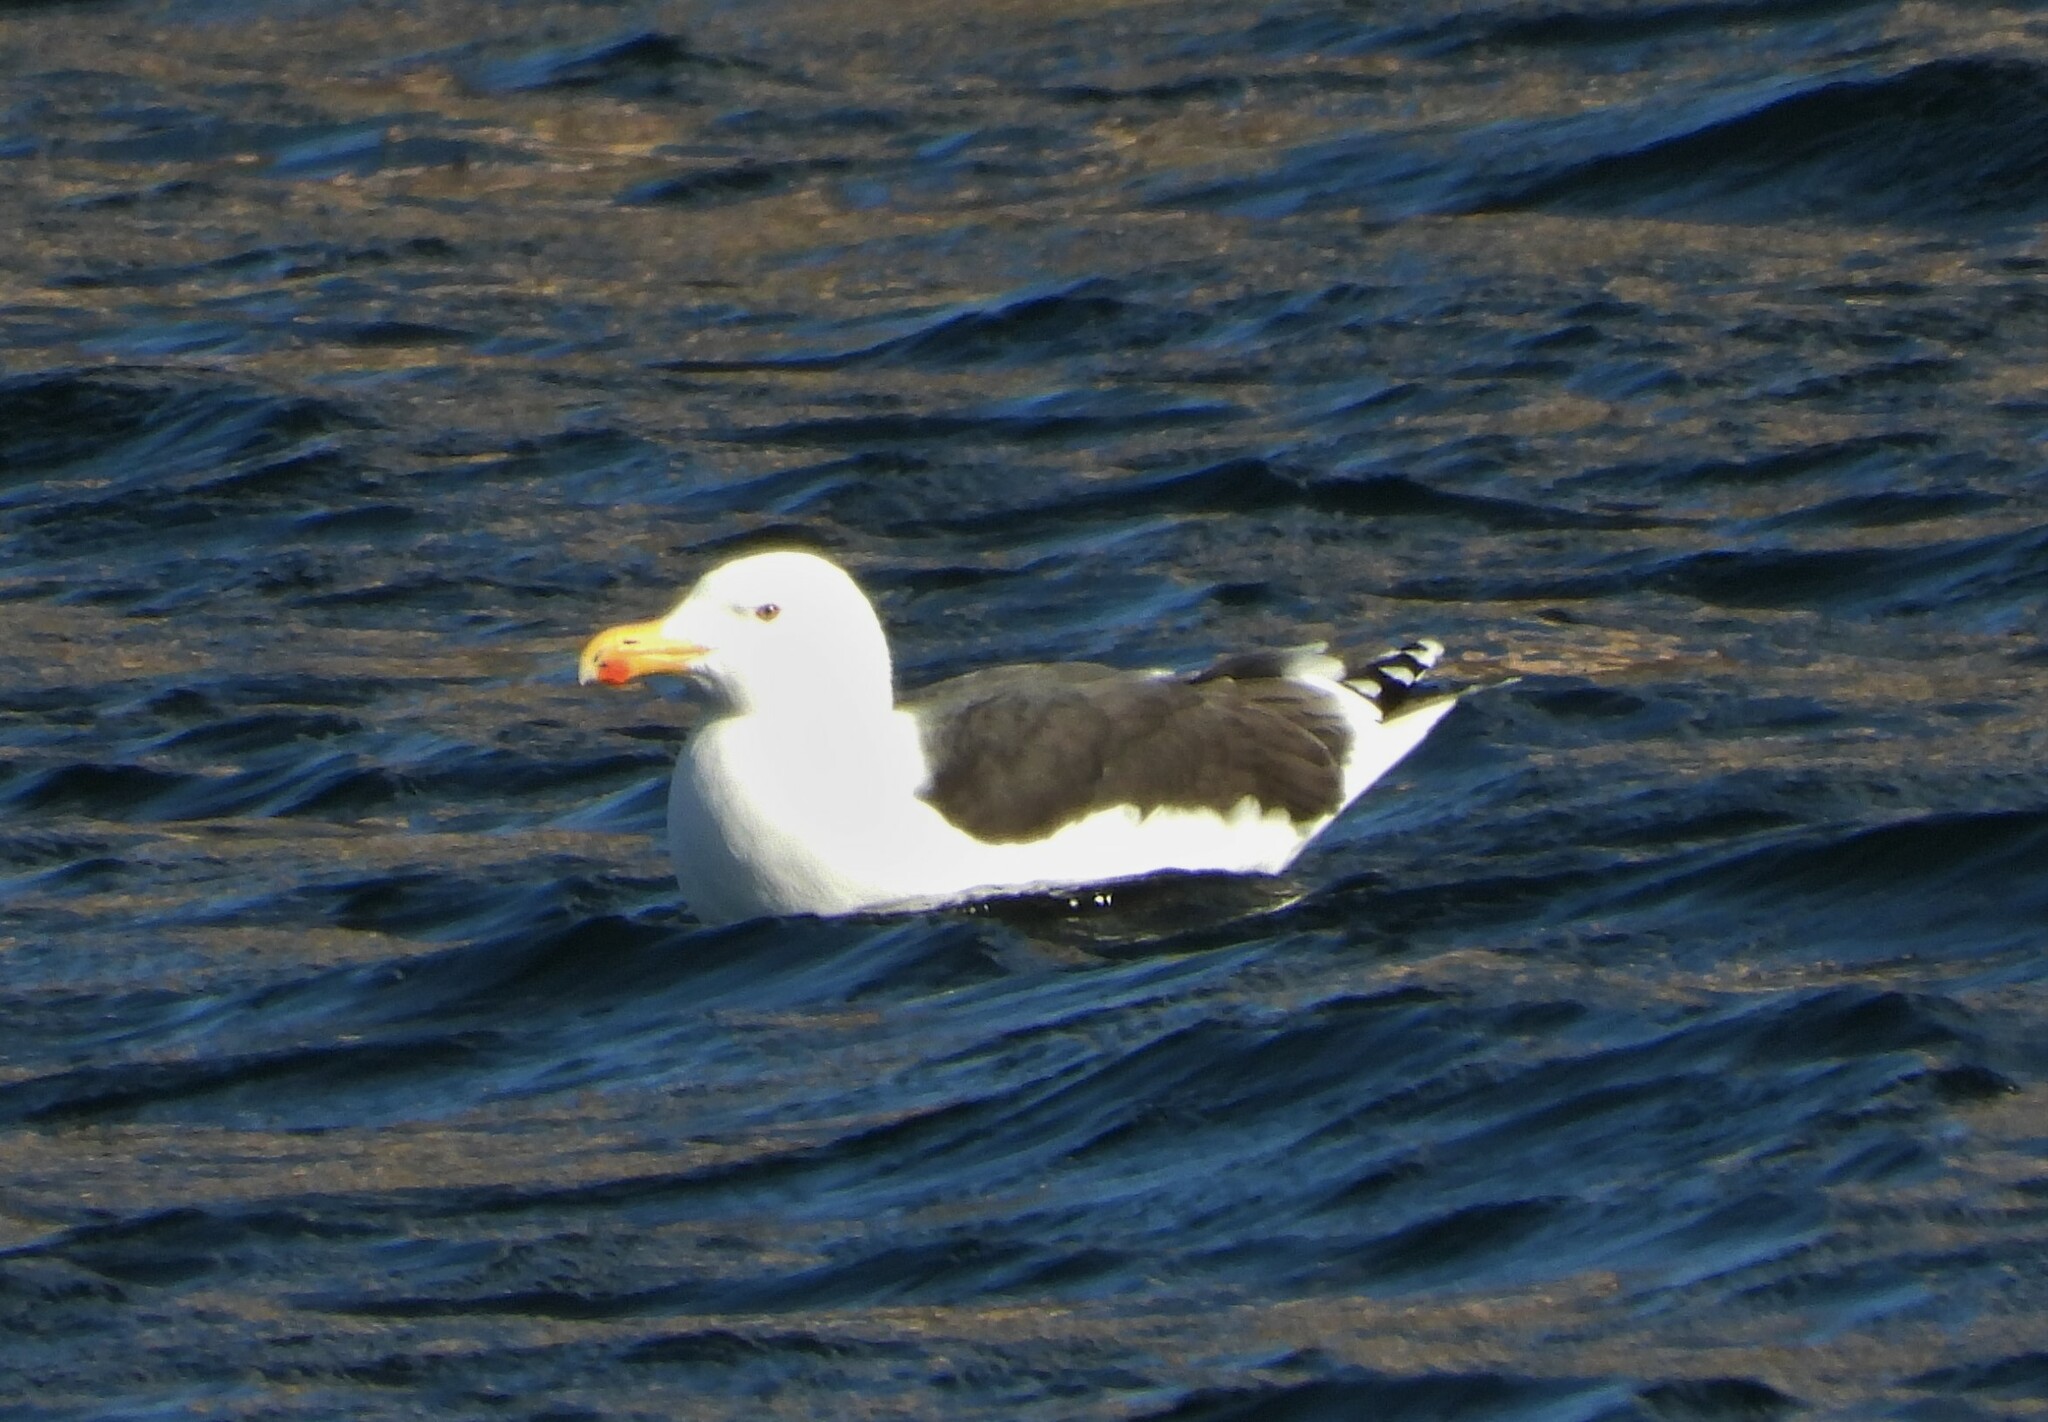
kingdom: Animalia
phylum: Chordata
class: Aves
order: Charadriiformes
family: Laridae
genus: Larus
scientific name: Larus marinus
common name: Great black-backed gull
